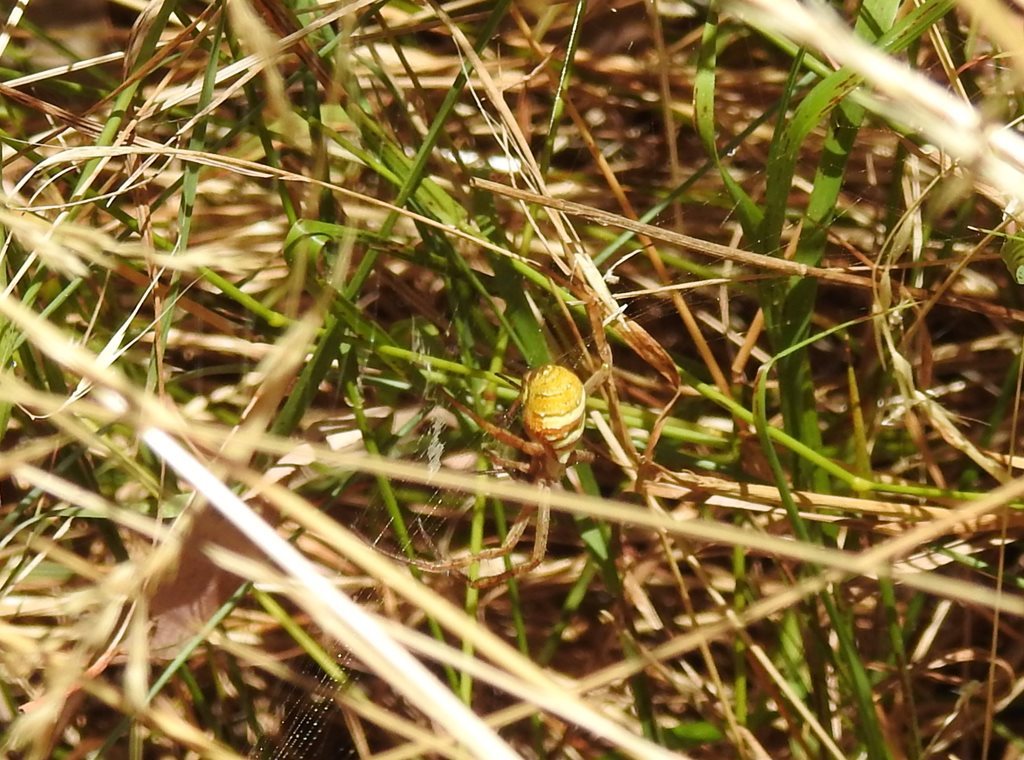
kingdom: Animalia
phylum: Arthropoda
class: Arachnida
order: Araneae
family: Araneidae
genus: Argiope
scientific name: Argiope keyserlingi
